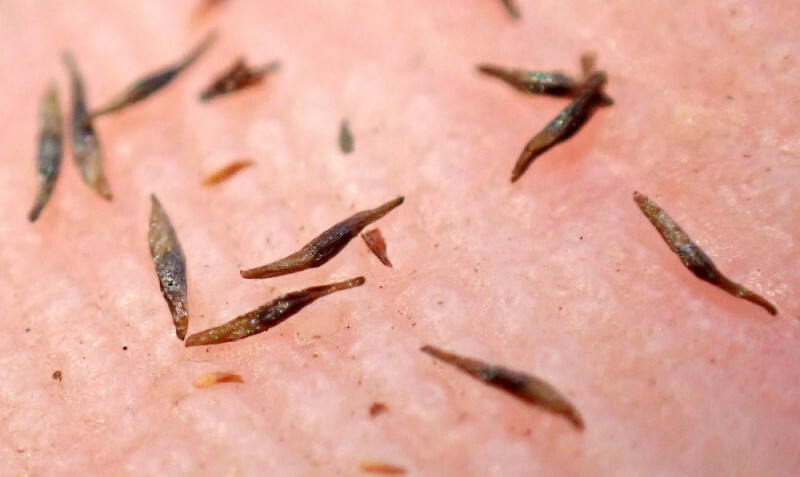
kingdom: Plantae
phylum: Tracheophyta
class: Magnoliopsida
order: Caryophyllales
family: Droseraceae
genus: Drosera
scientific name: Drosera rotundifolia
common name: Round-leaved sundew
